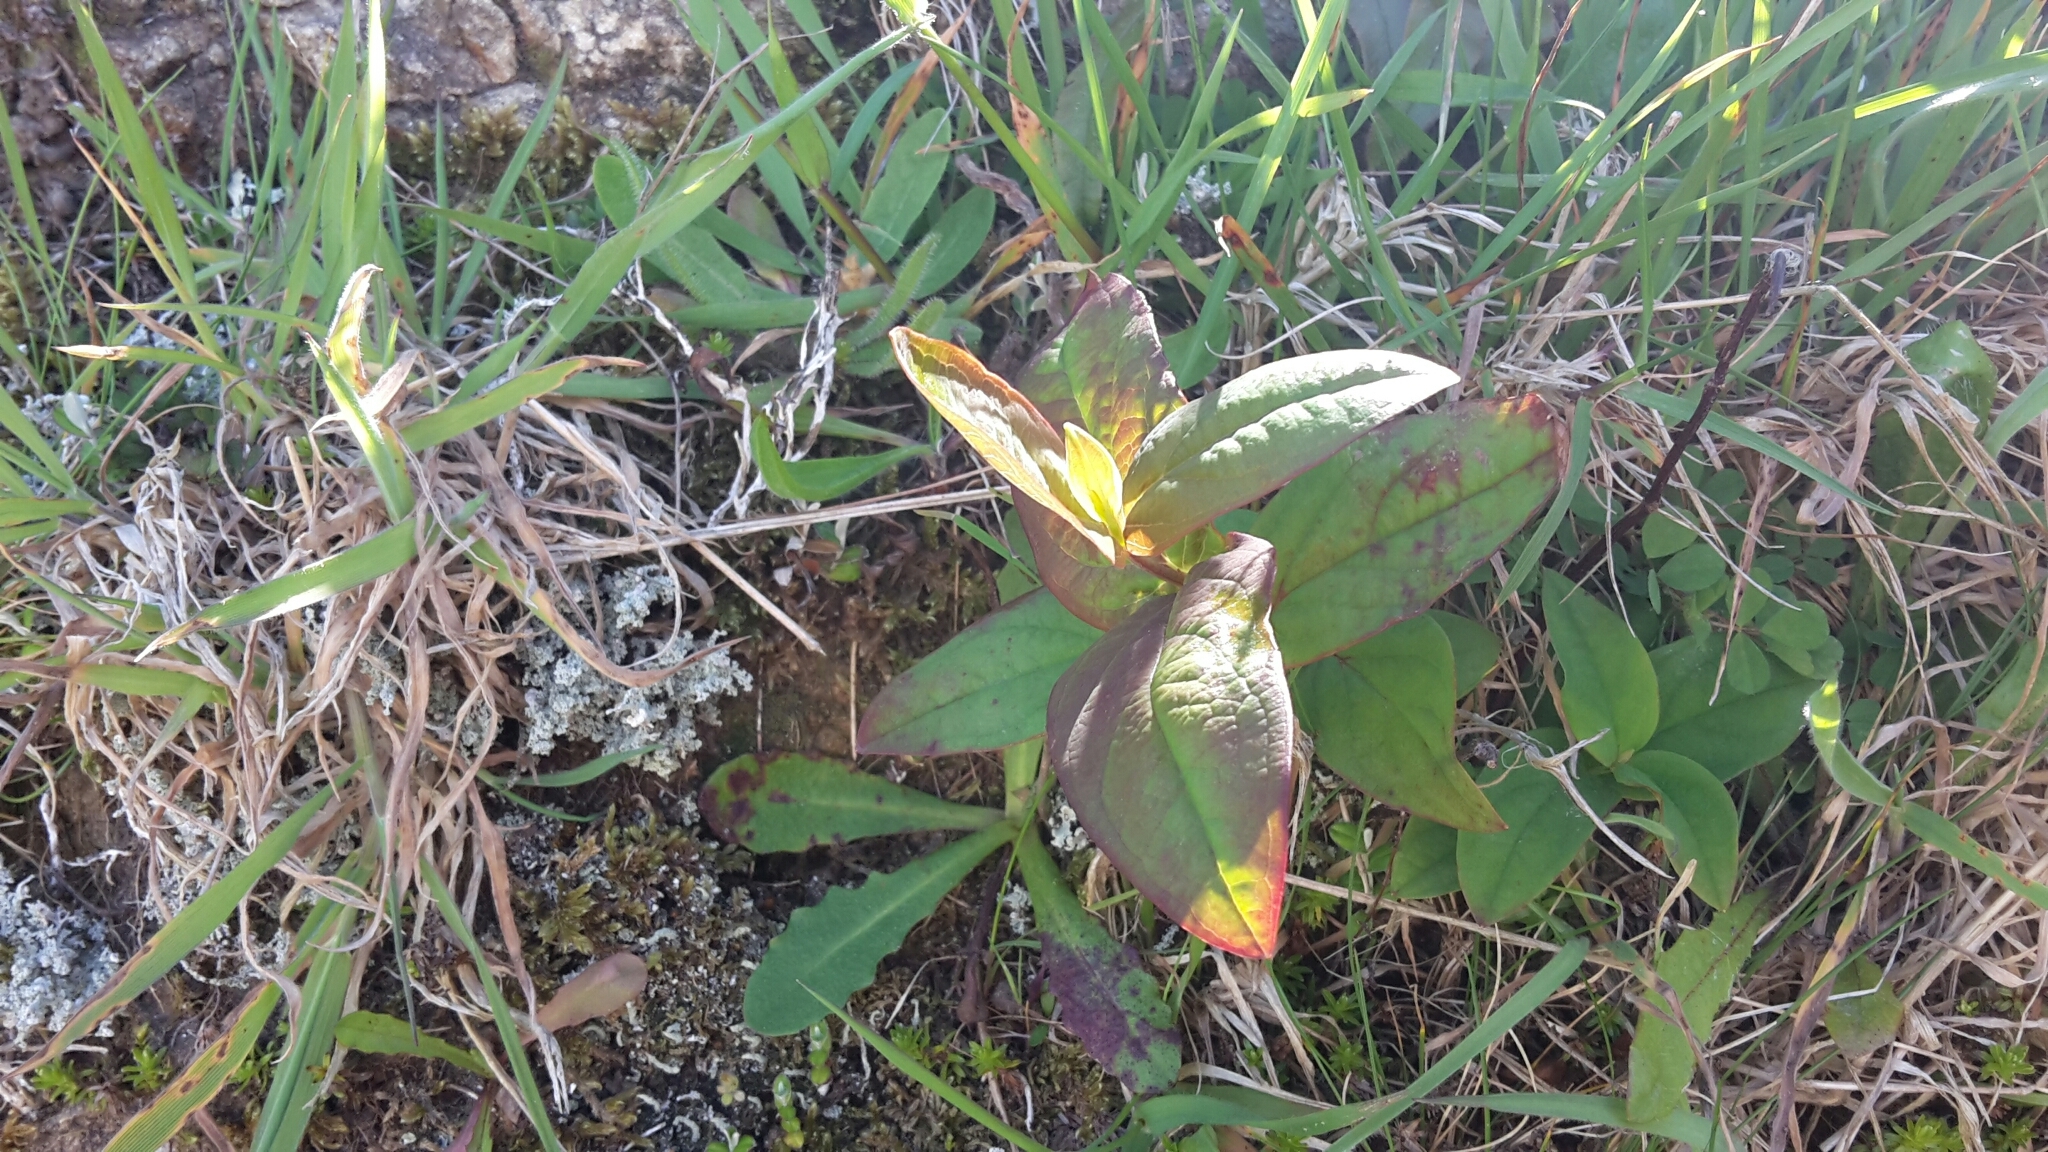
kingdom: Plantae
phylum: Tracheophyta
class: Magnoliopsida
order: Malpighiales
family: Hypericaceae
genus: Hypericum
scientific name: Hypericum androsaemum
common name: Sweet-amber
